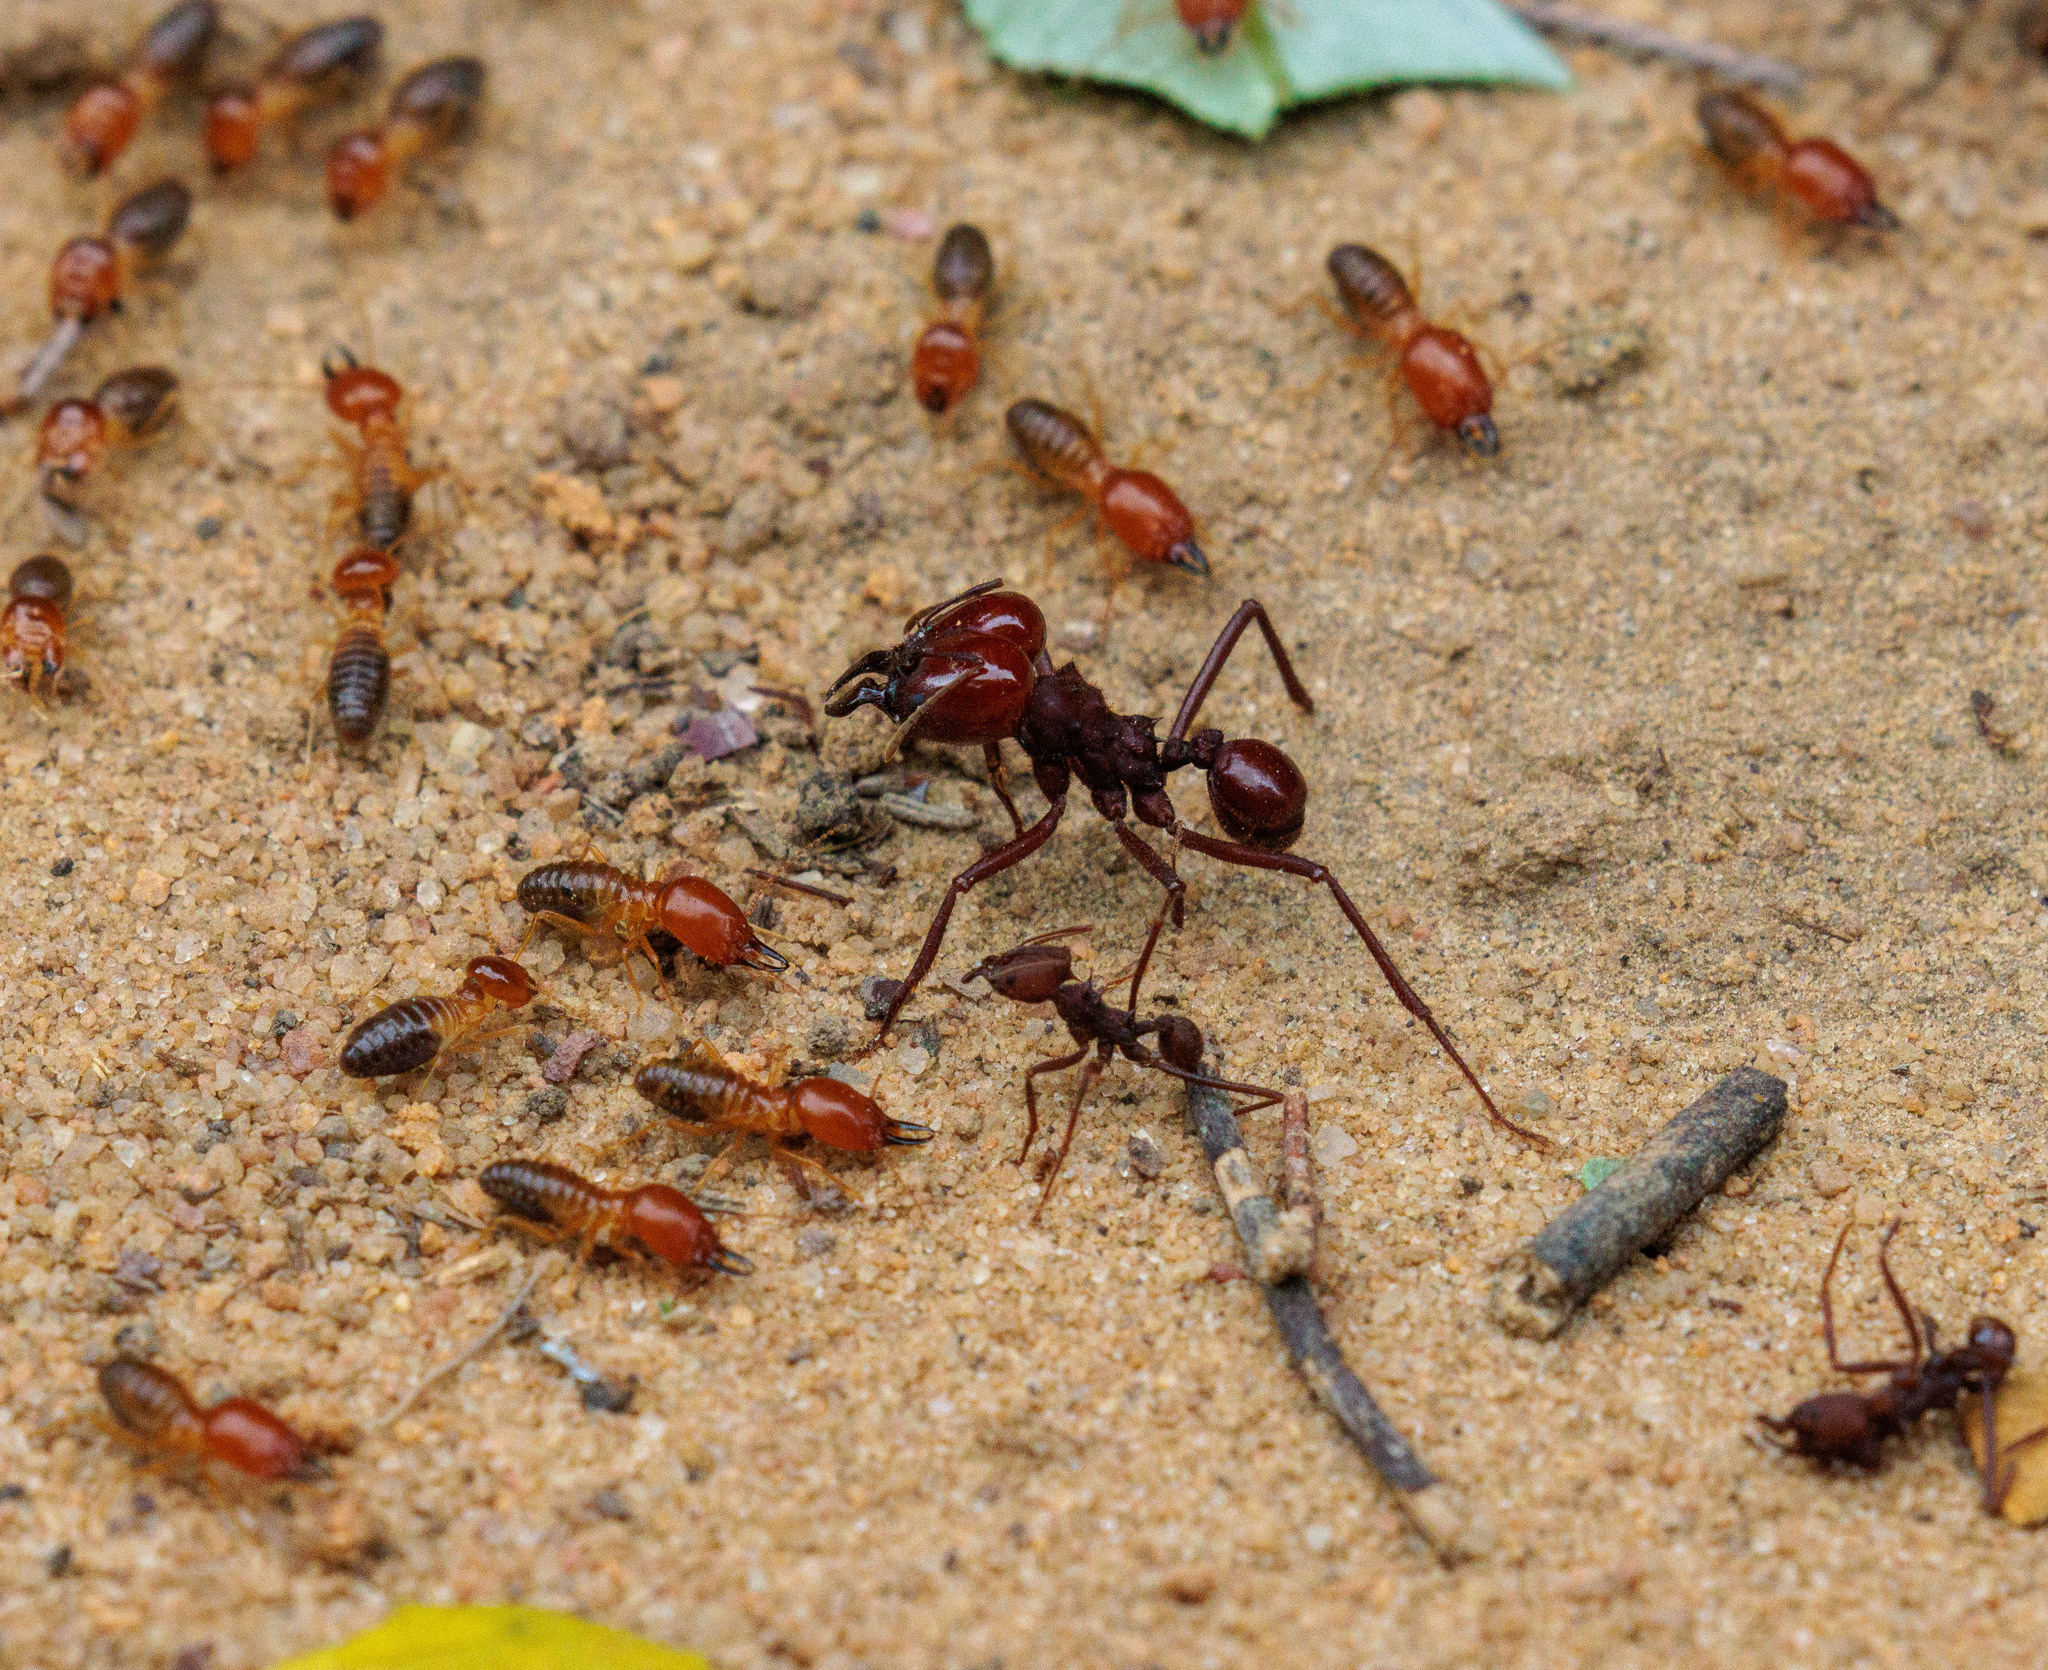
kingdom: Animalia
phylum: Arthropoda
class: Insecta
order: Hymenoptera
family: Formicidae
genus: Atta
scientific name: Atta laevigata
